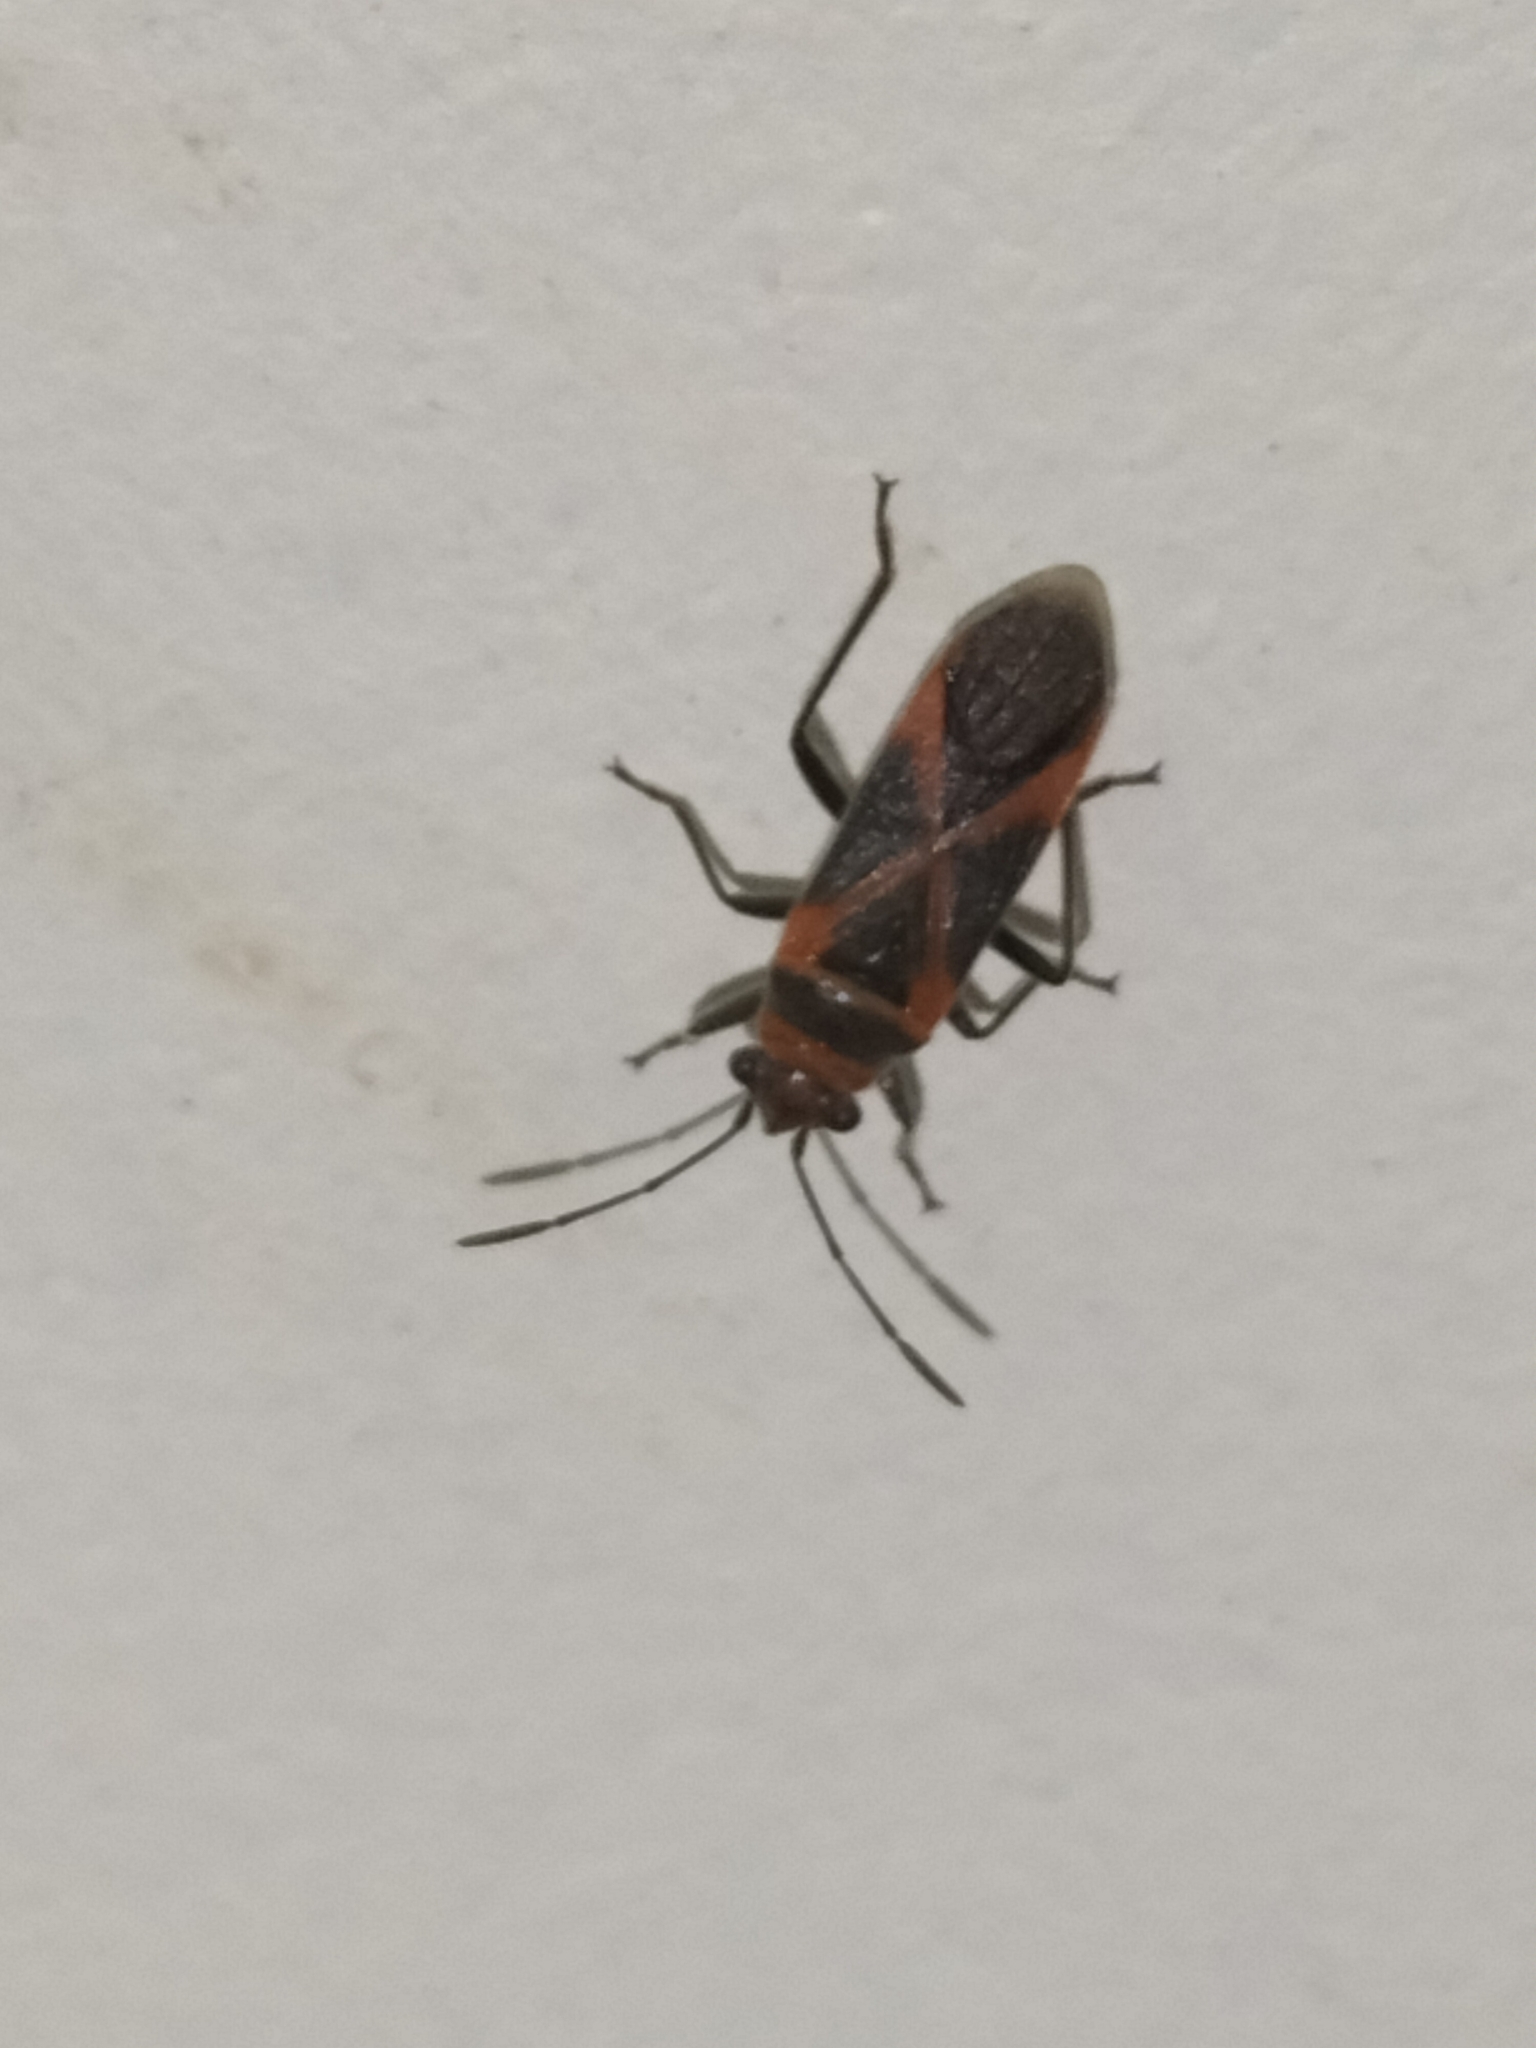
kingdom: Animalia
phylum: Arthropoda
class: Insecta
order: Hemiptera
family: Lygaeidae
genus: Arocatus
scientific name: Arocatus rusticus
